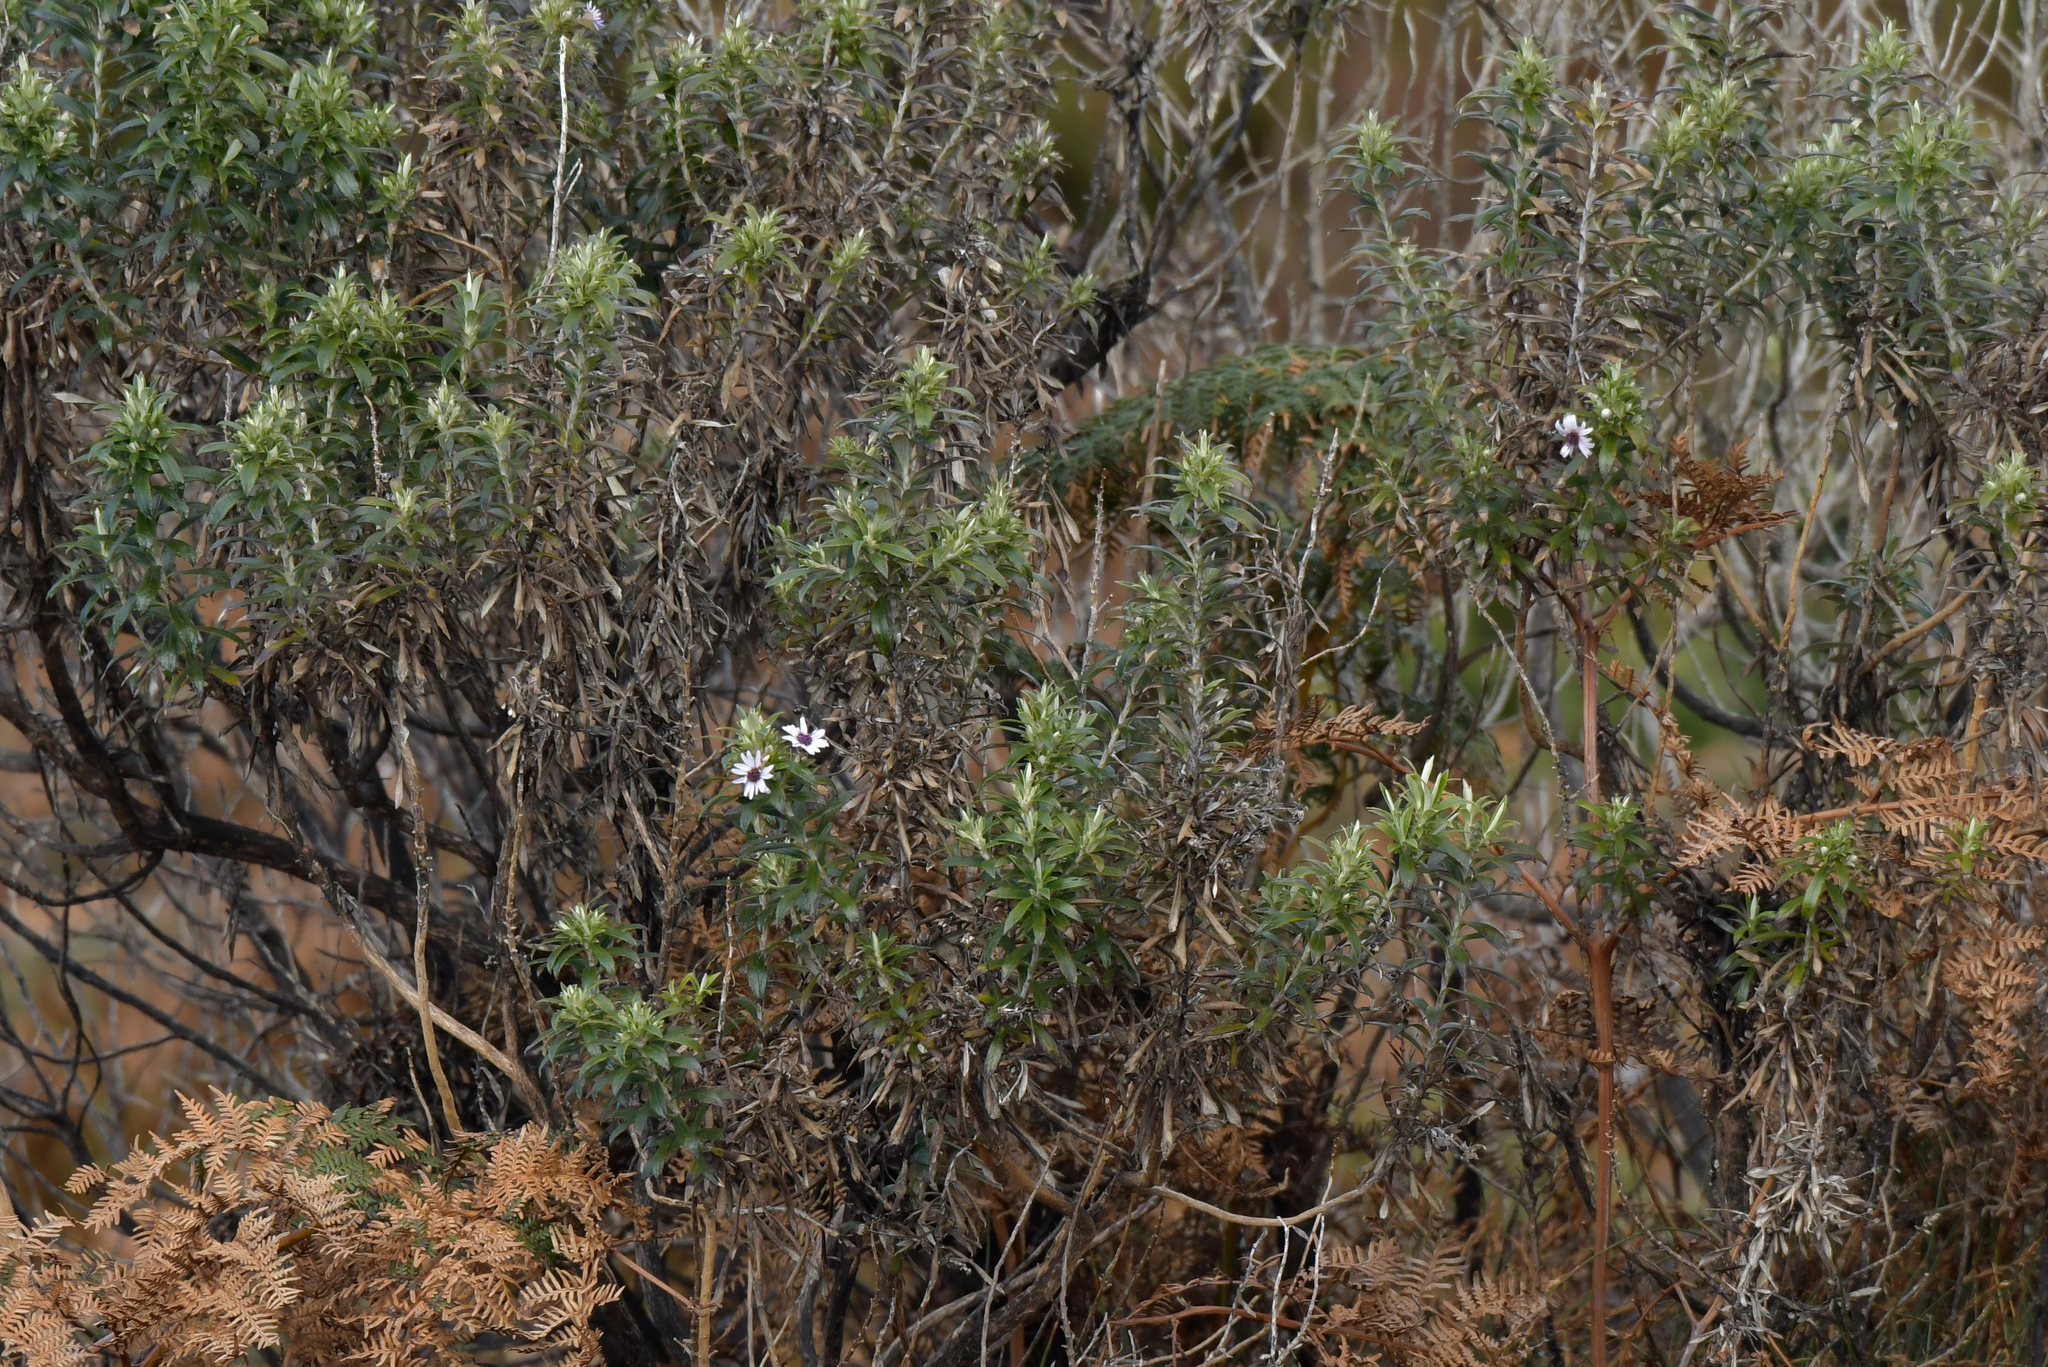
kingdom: Plantae
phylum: Tracheophyta
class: Magnoliopsida
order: Asterales
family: Asteraceae
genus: Macrolearia
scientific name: Macrolearia semidentata
